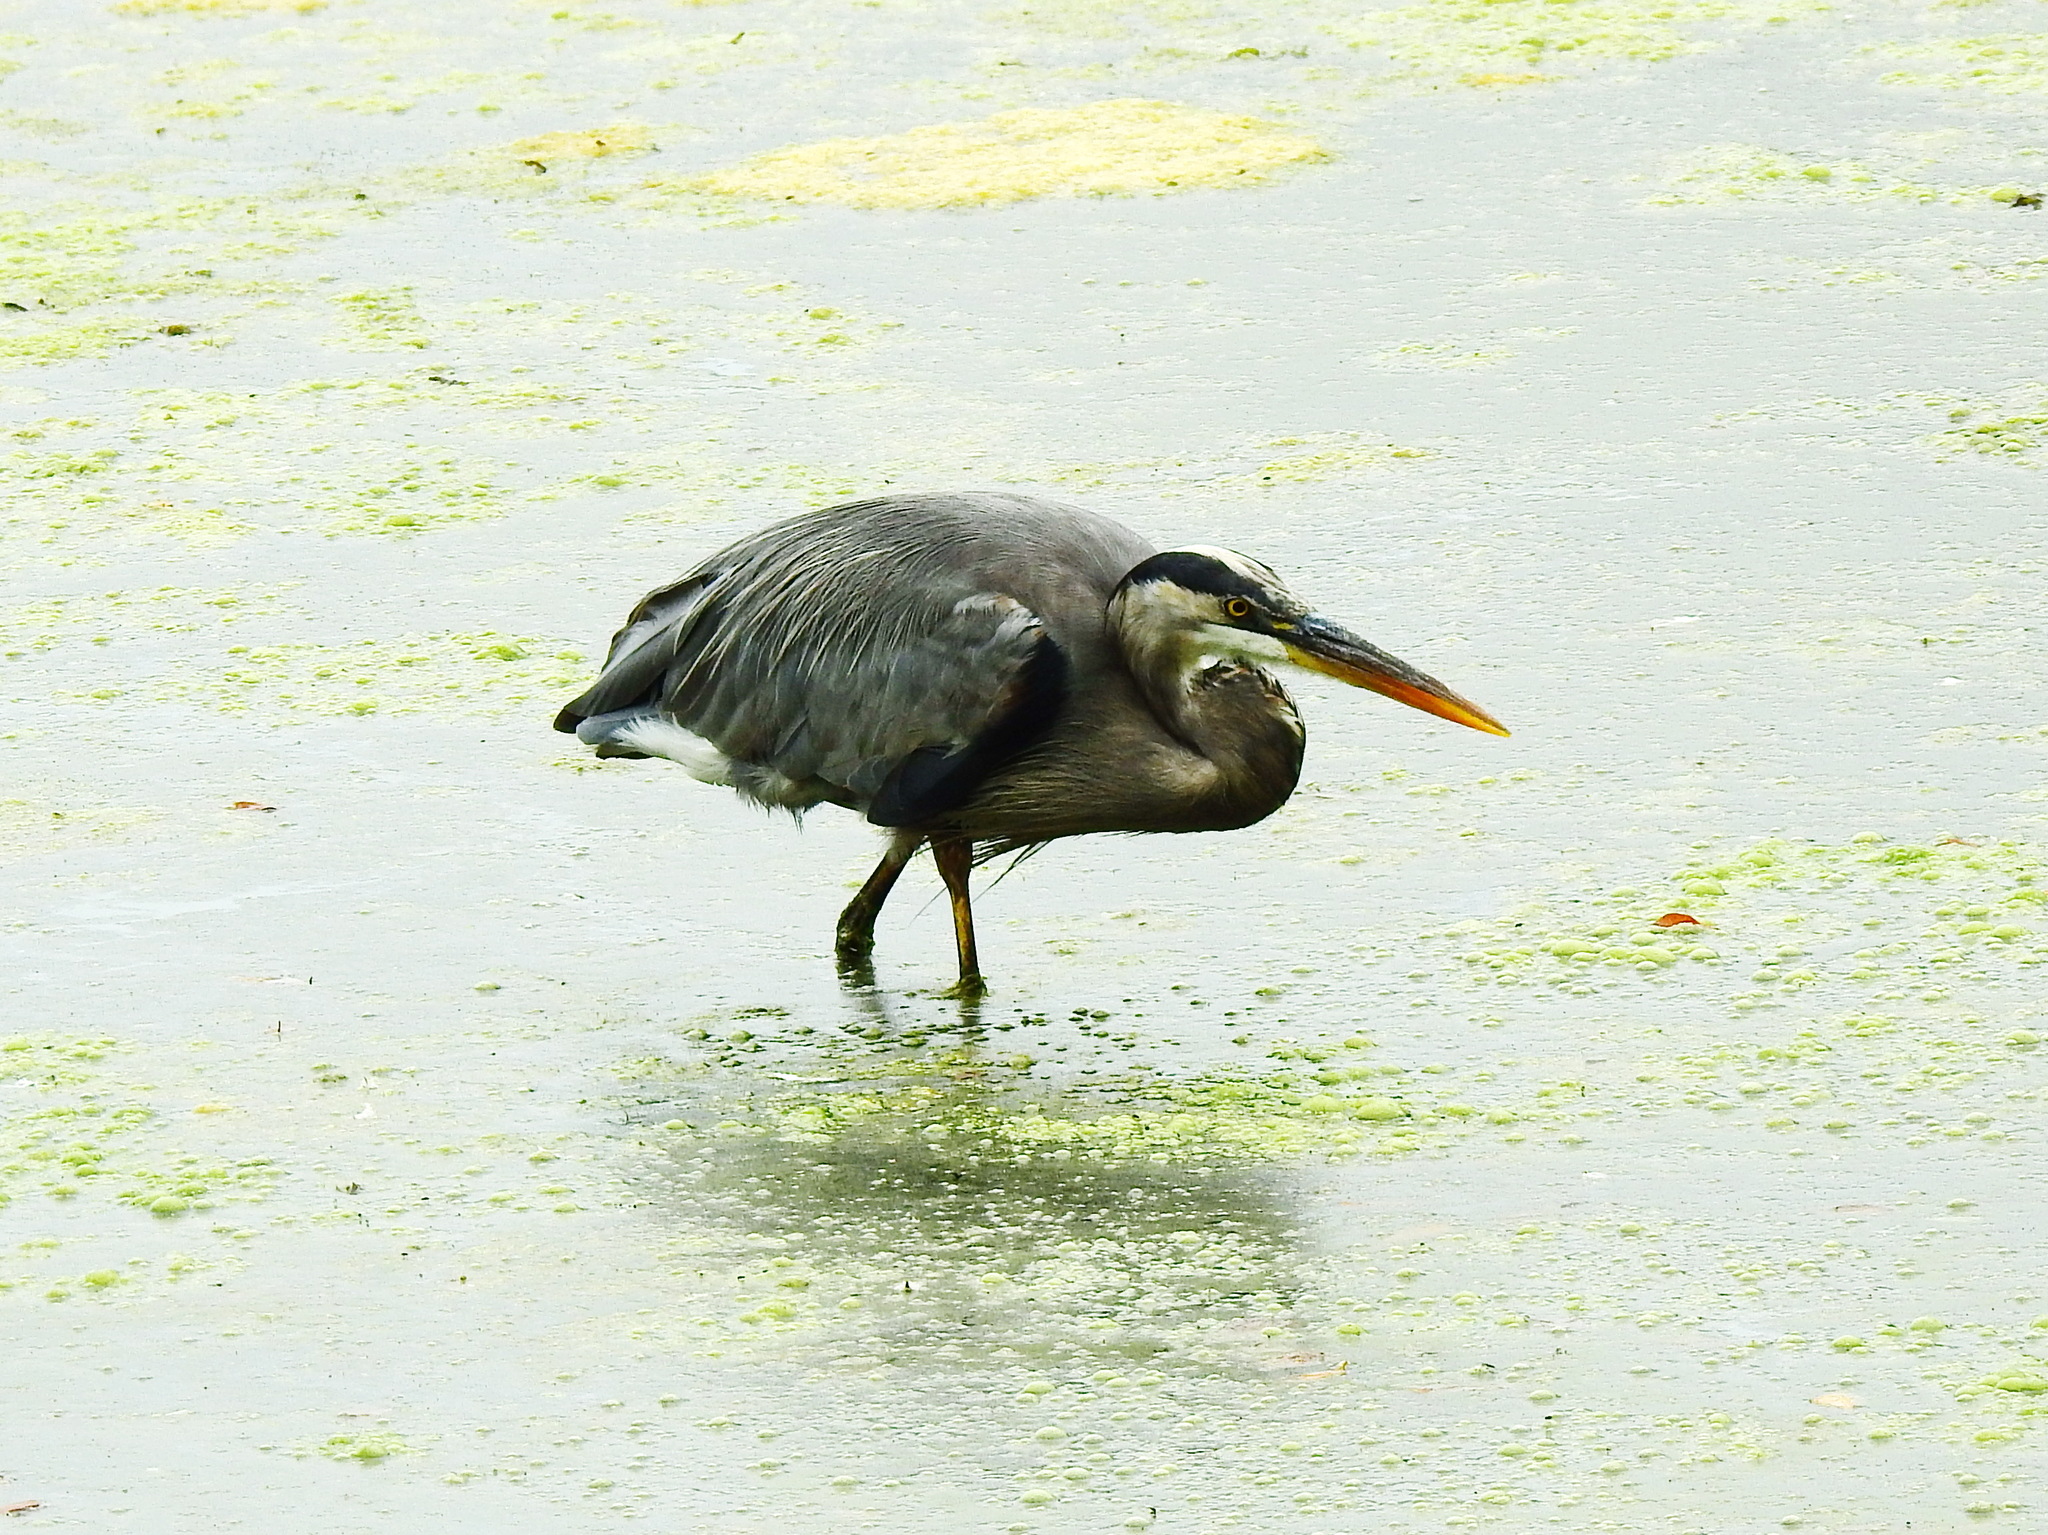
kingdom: Animalia
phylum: Chordata
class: Aves
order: Pelecaniformes
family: Ardeidae
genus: Ardea
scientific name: Ardea herodias
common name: Great blue heron
